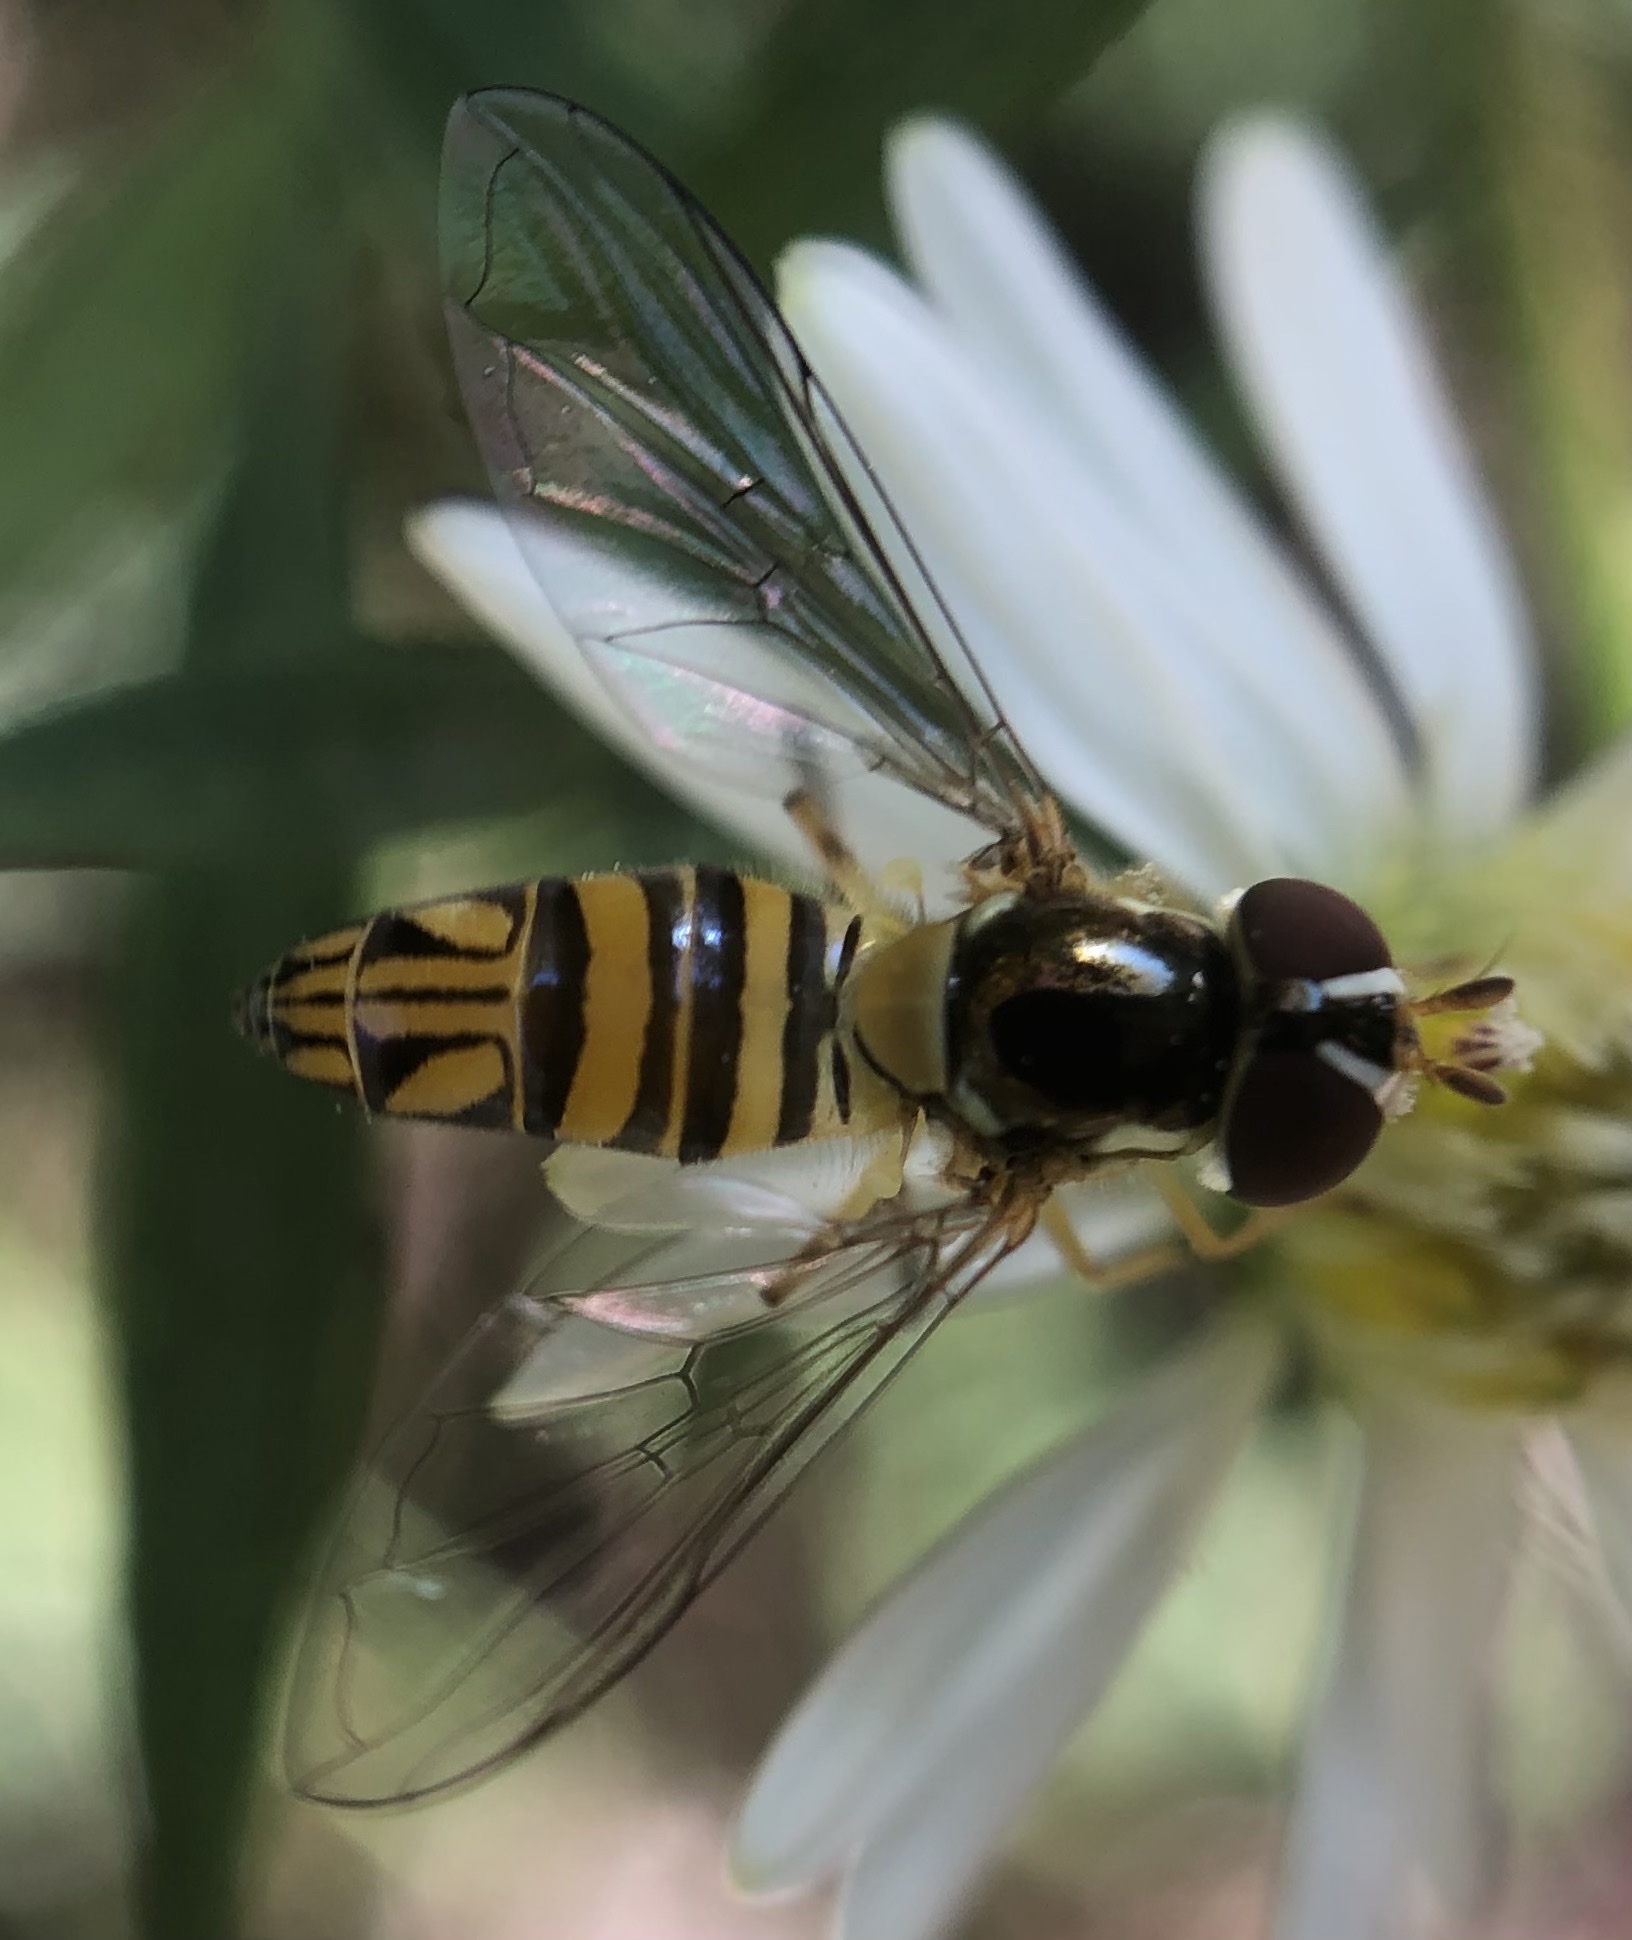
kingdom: Animalia
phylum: Arthropoda
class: Insecta
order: Diptera
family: Syrphidae
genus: Allograpta
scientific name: Allograpta obliqua
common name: Common oblique syrphid
